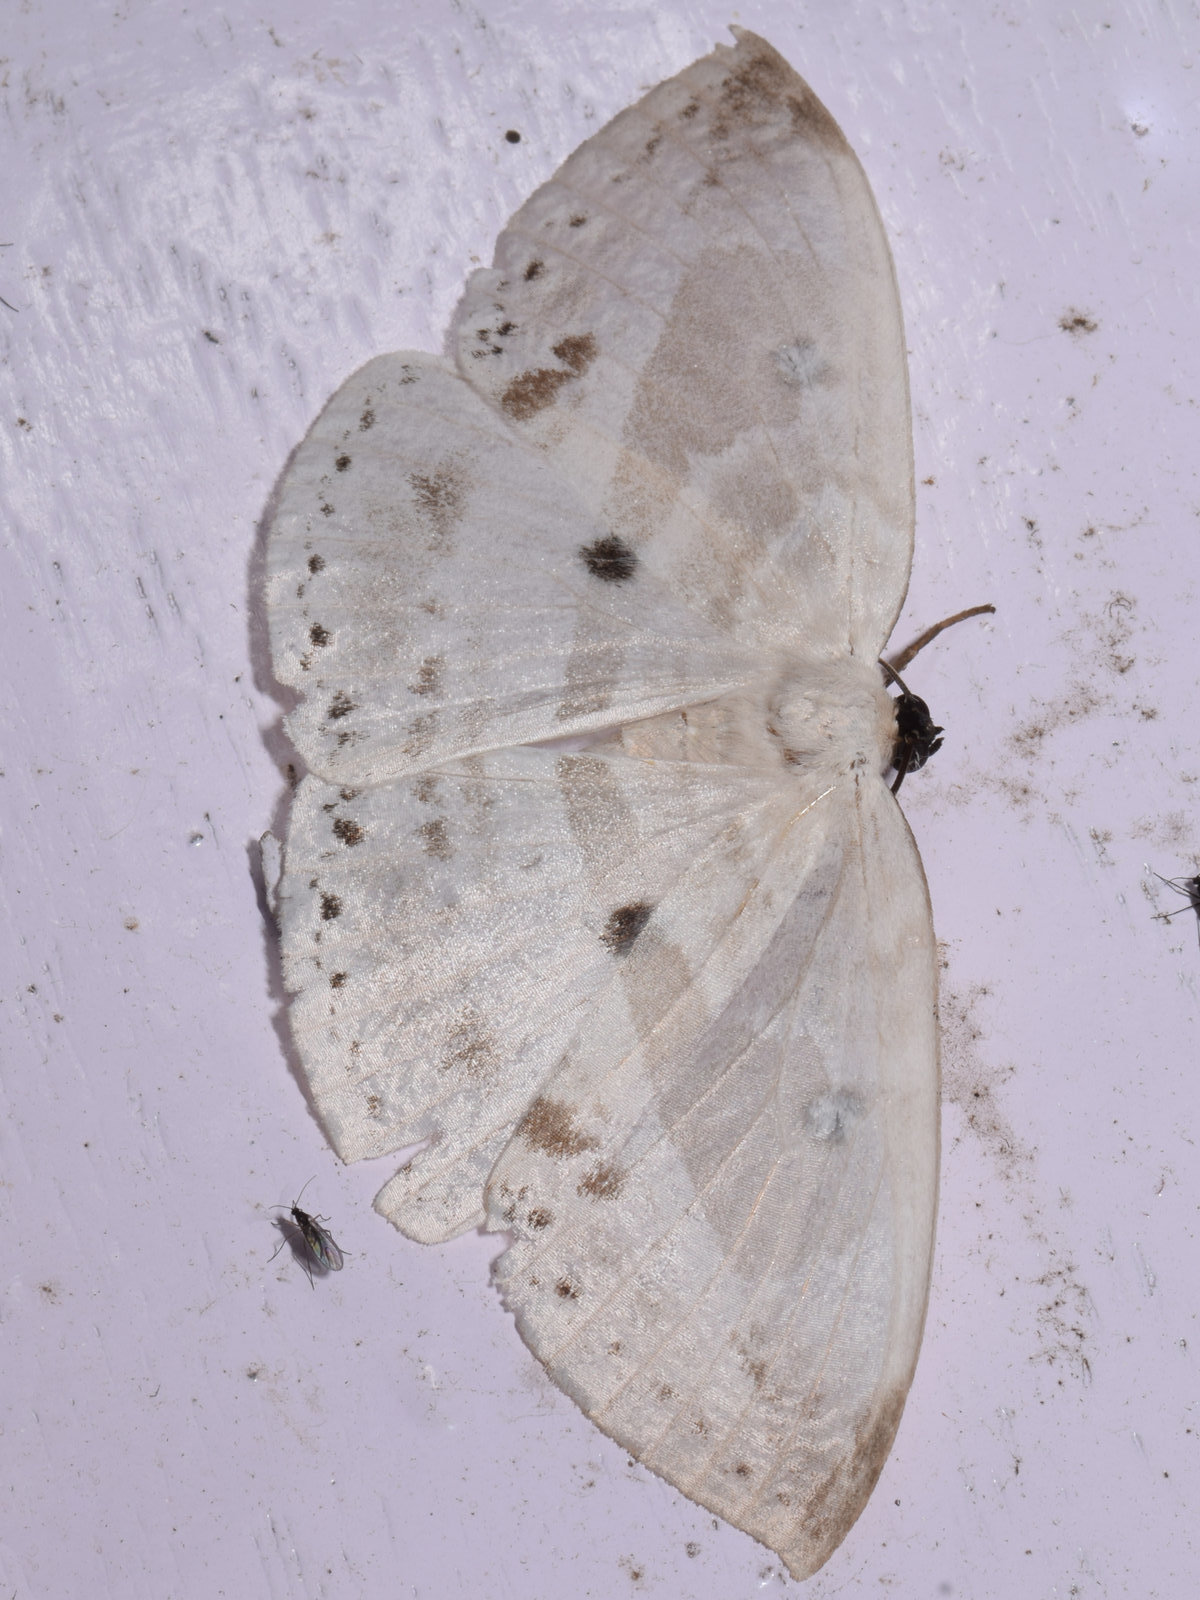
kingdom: Animalia
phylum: Arthropoda
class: Insecta
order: Lepidoptera
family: Drepanidae
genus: Cyclidia
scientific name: Cyclidia substigmaria
